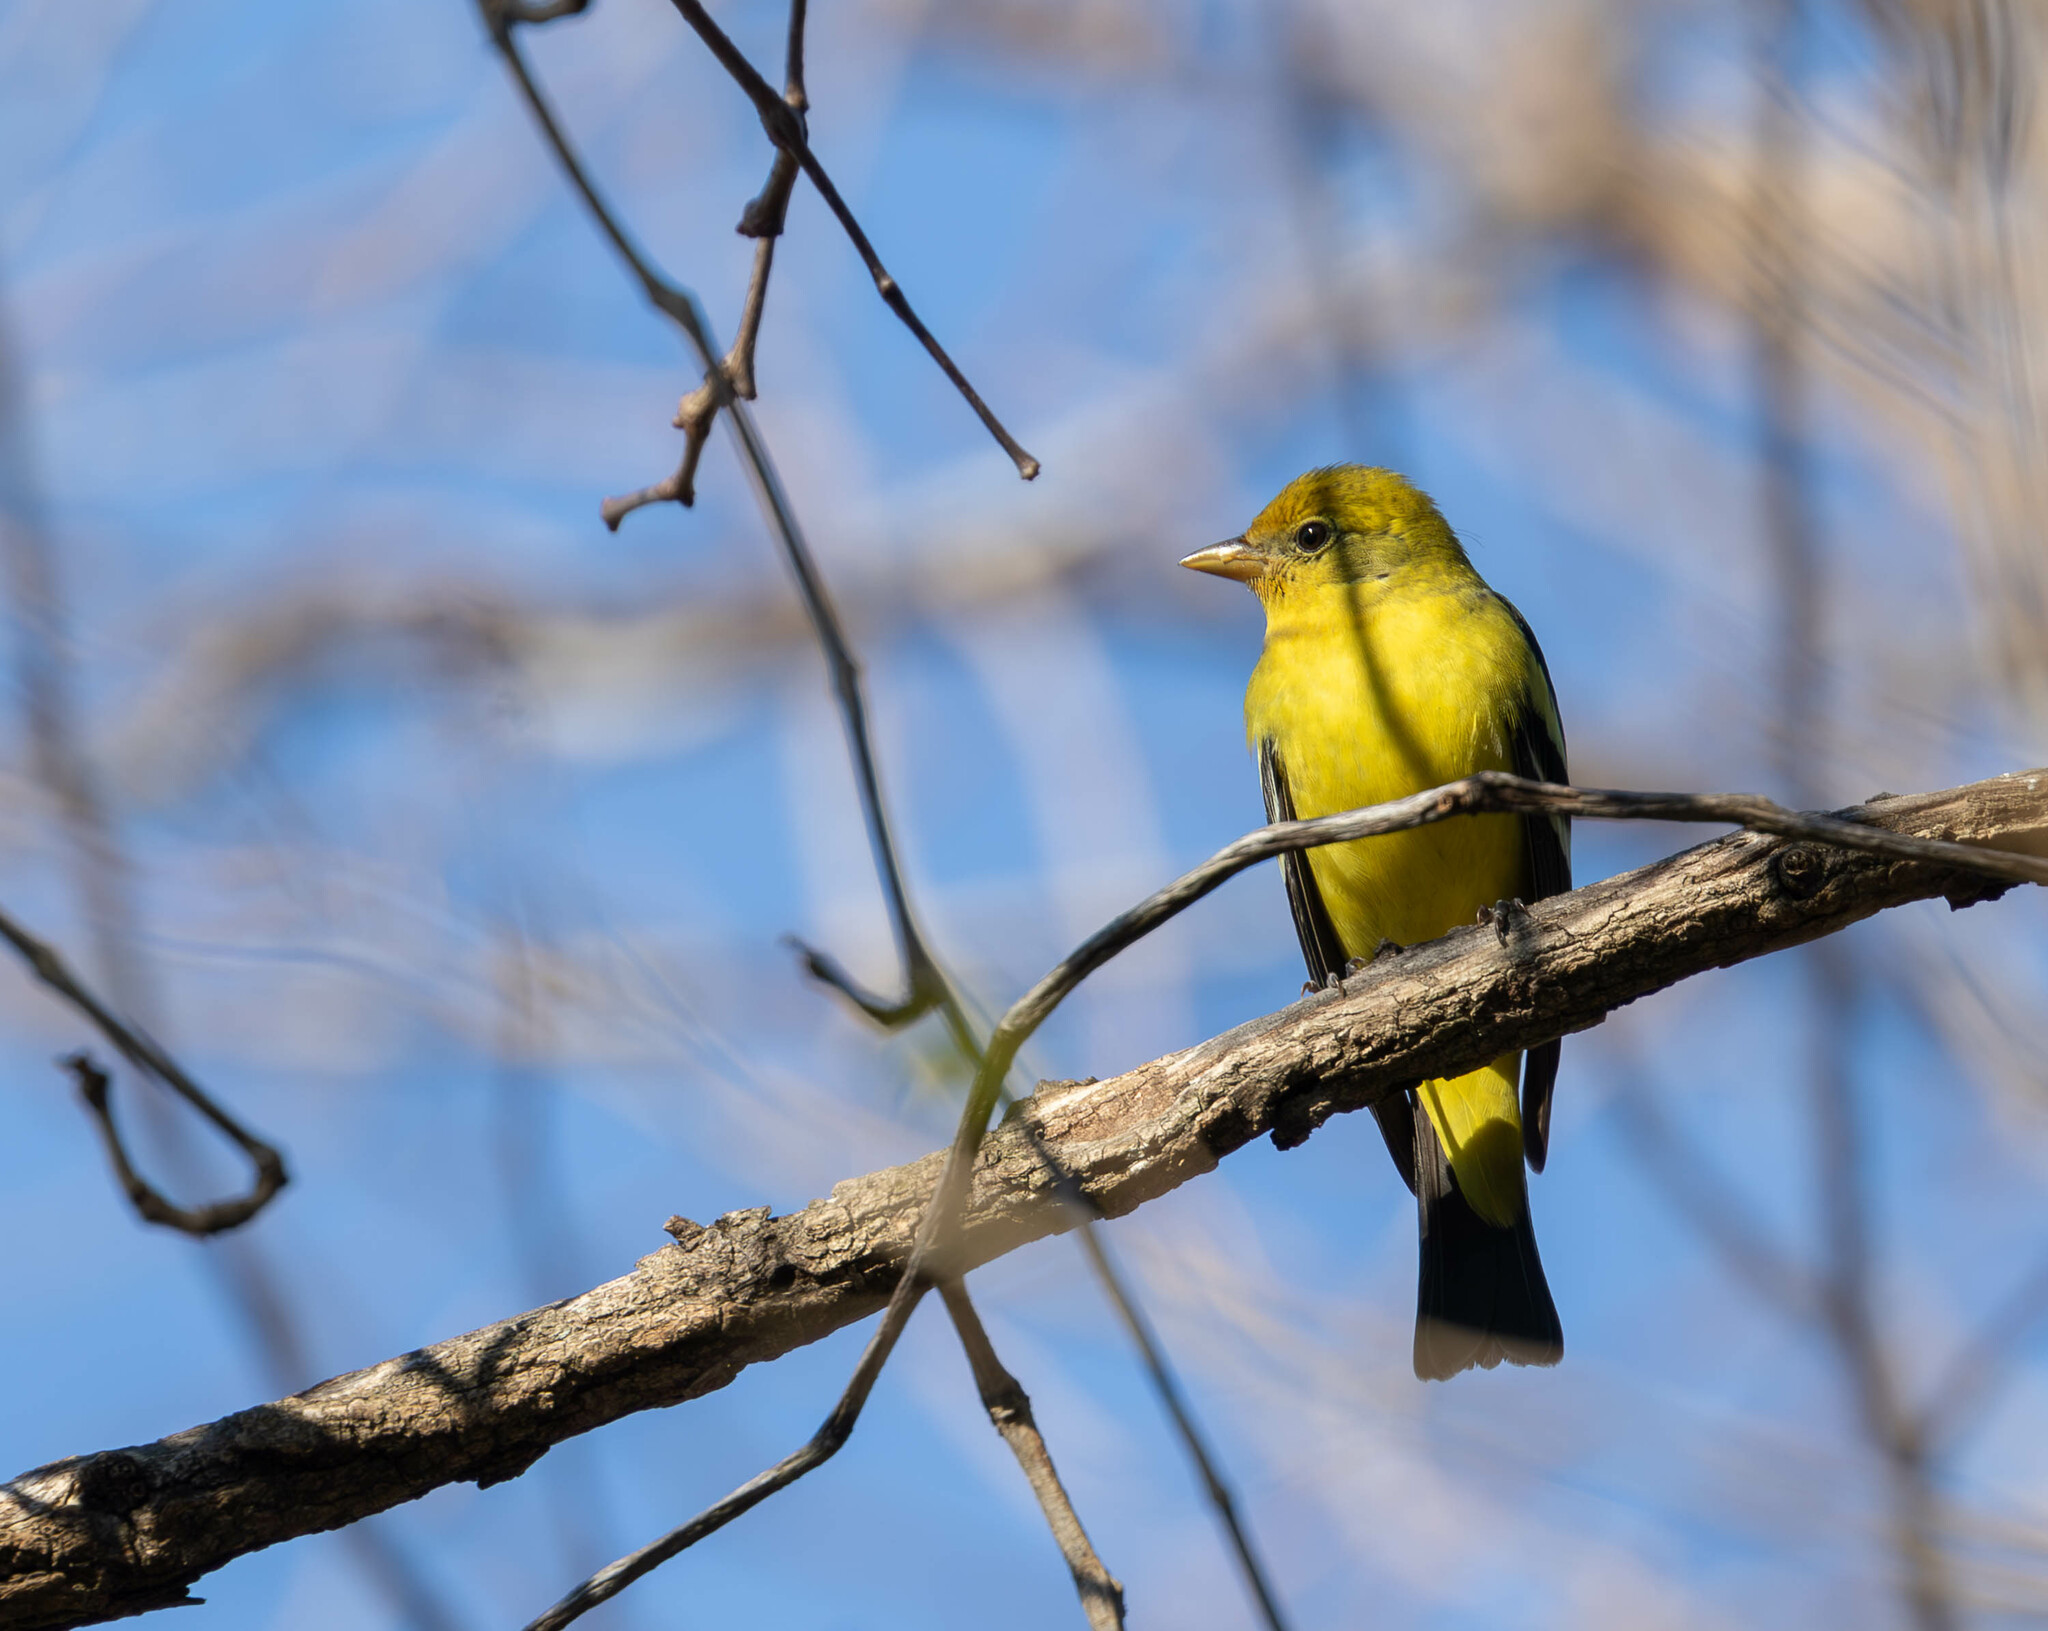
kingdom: Animalia
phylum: Chordata
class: Aves
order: Passeriformes
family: Cardinalidae
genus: Piranga
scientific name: Piranga ludoviciana
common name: Western tanager
